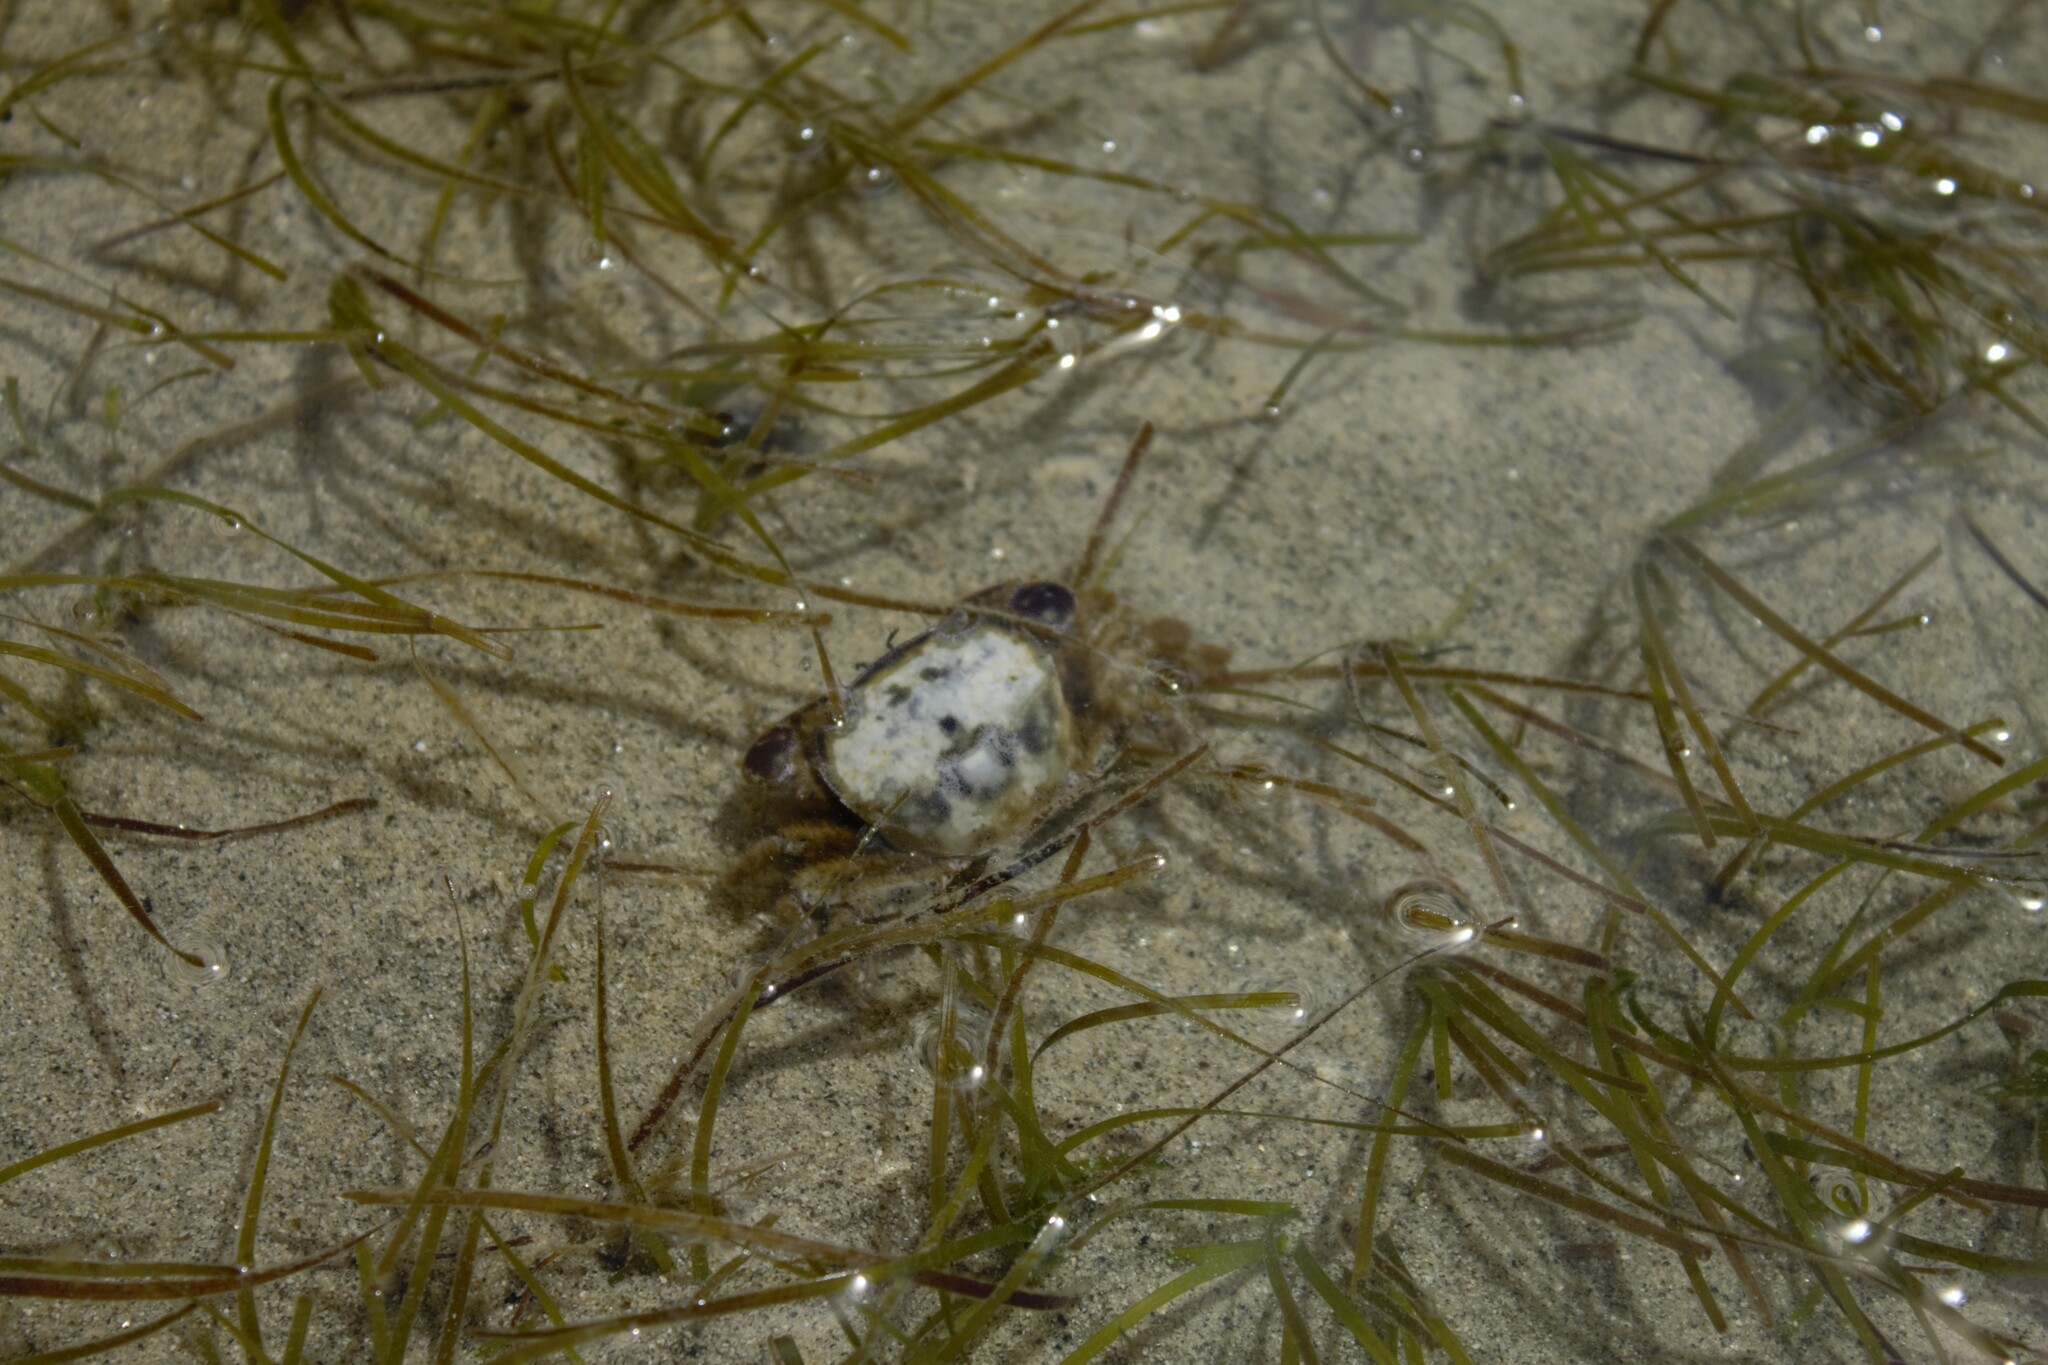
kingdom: Animalia
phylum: Arthropoda
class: Malacostraca
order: Decapoda
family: Varunidae
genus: Hemigrapsus
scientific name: Hemigrapsus crenulatus
